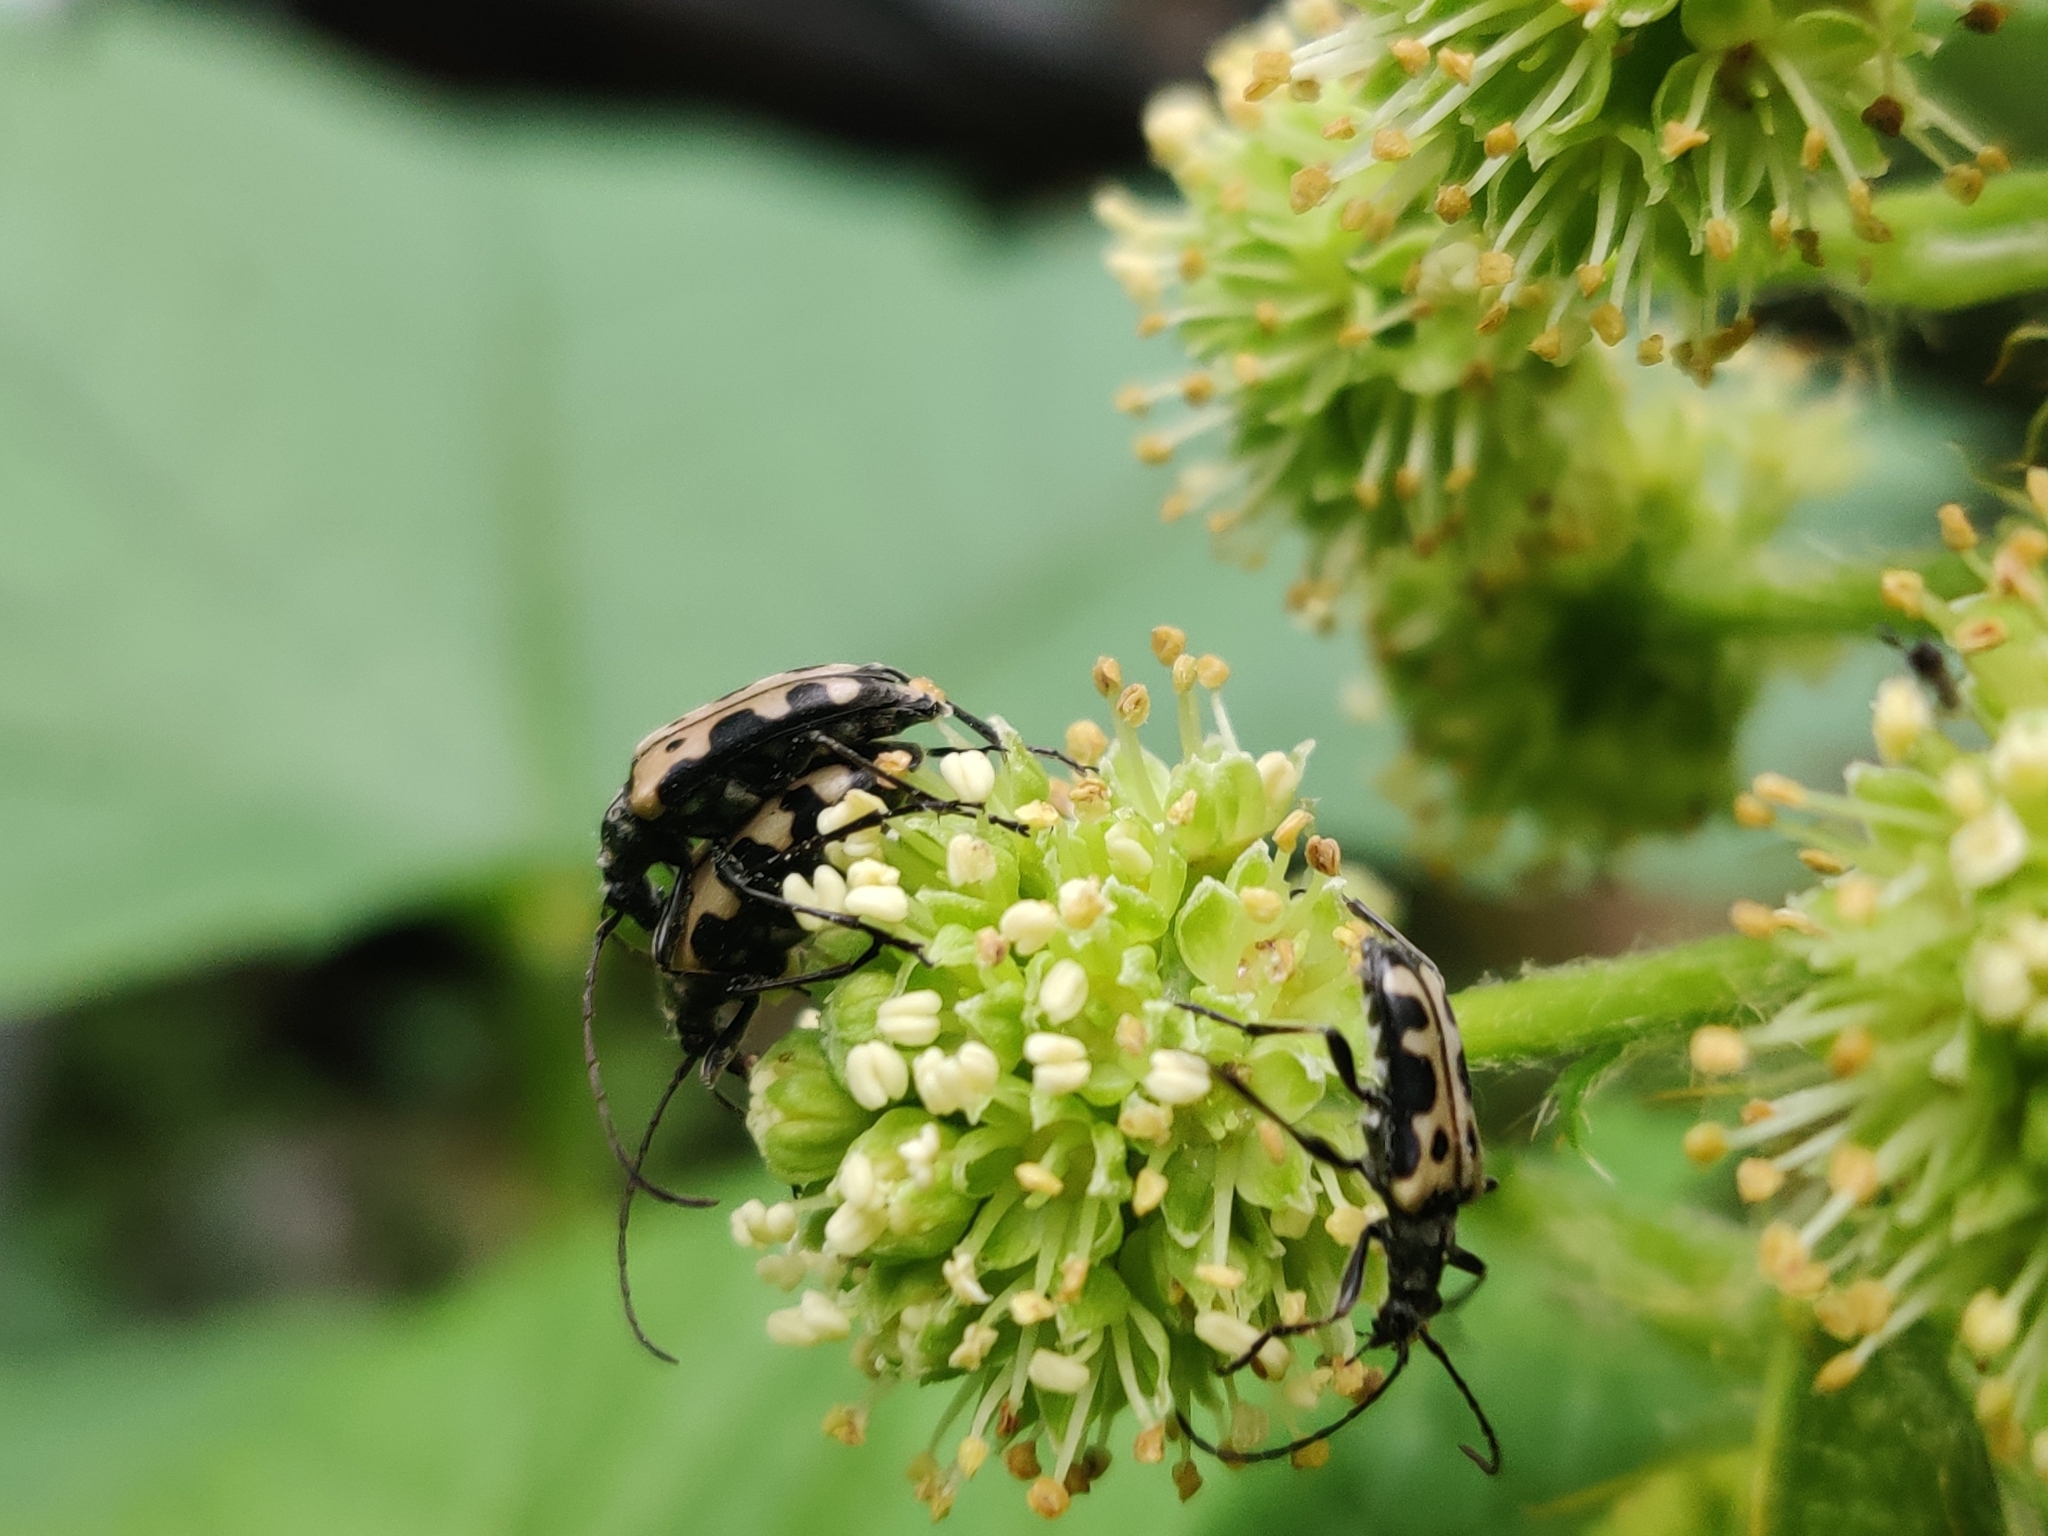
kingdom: Animalia
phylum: Arthropoda
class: Insecta
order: Coleoptera
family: Cerambycidae
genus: Evodinus
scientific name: Evodinus monticola
